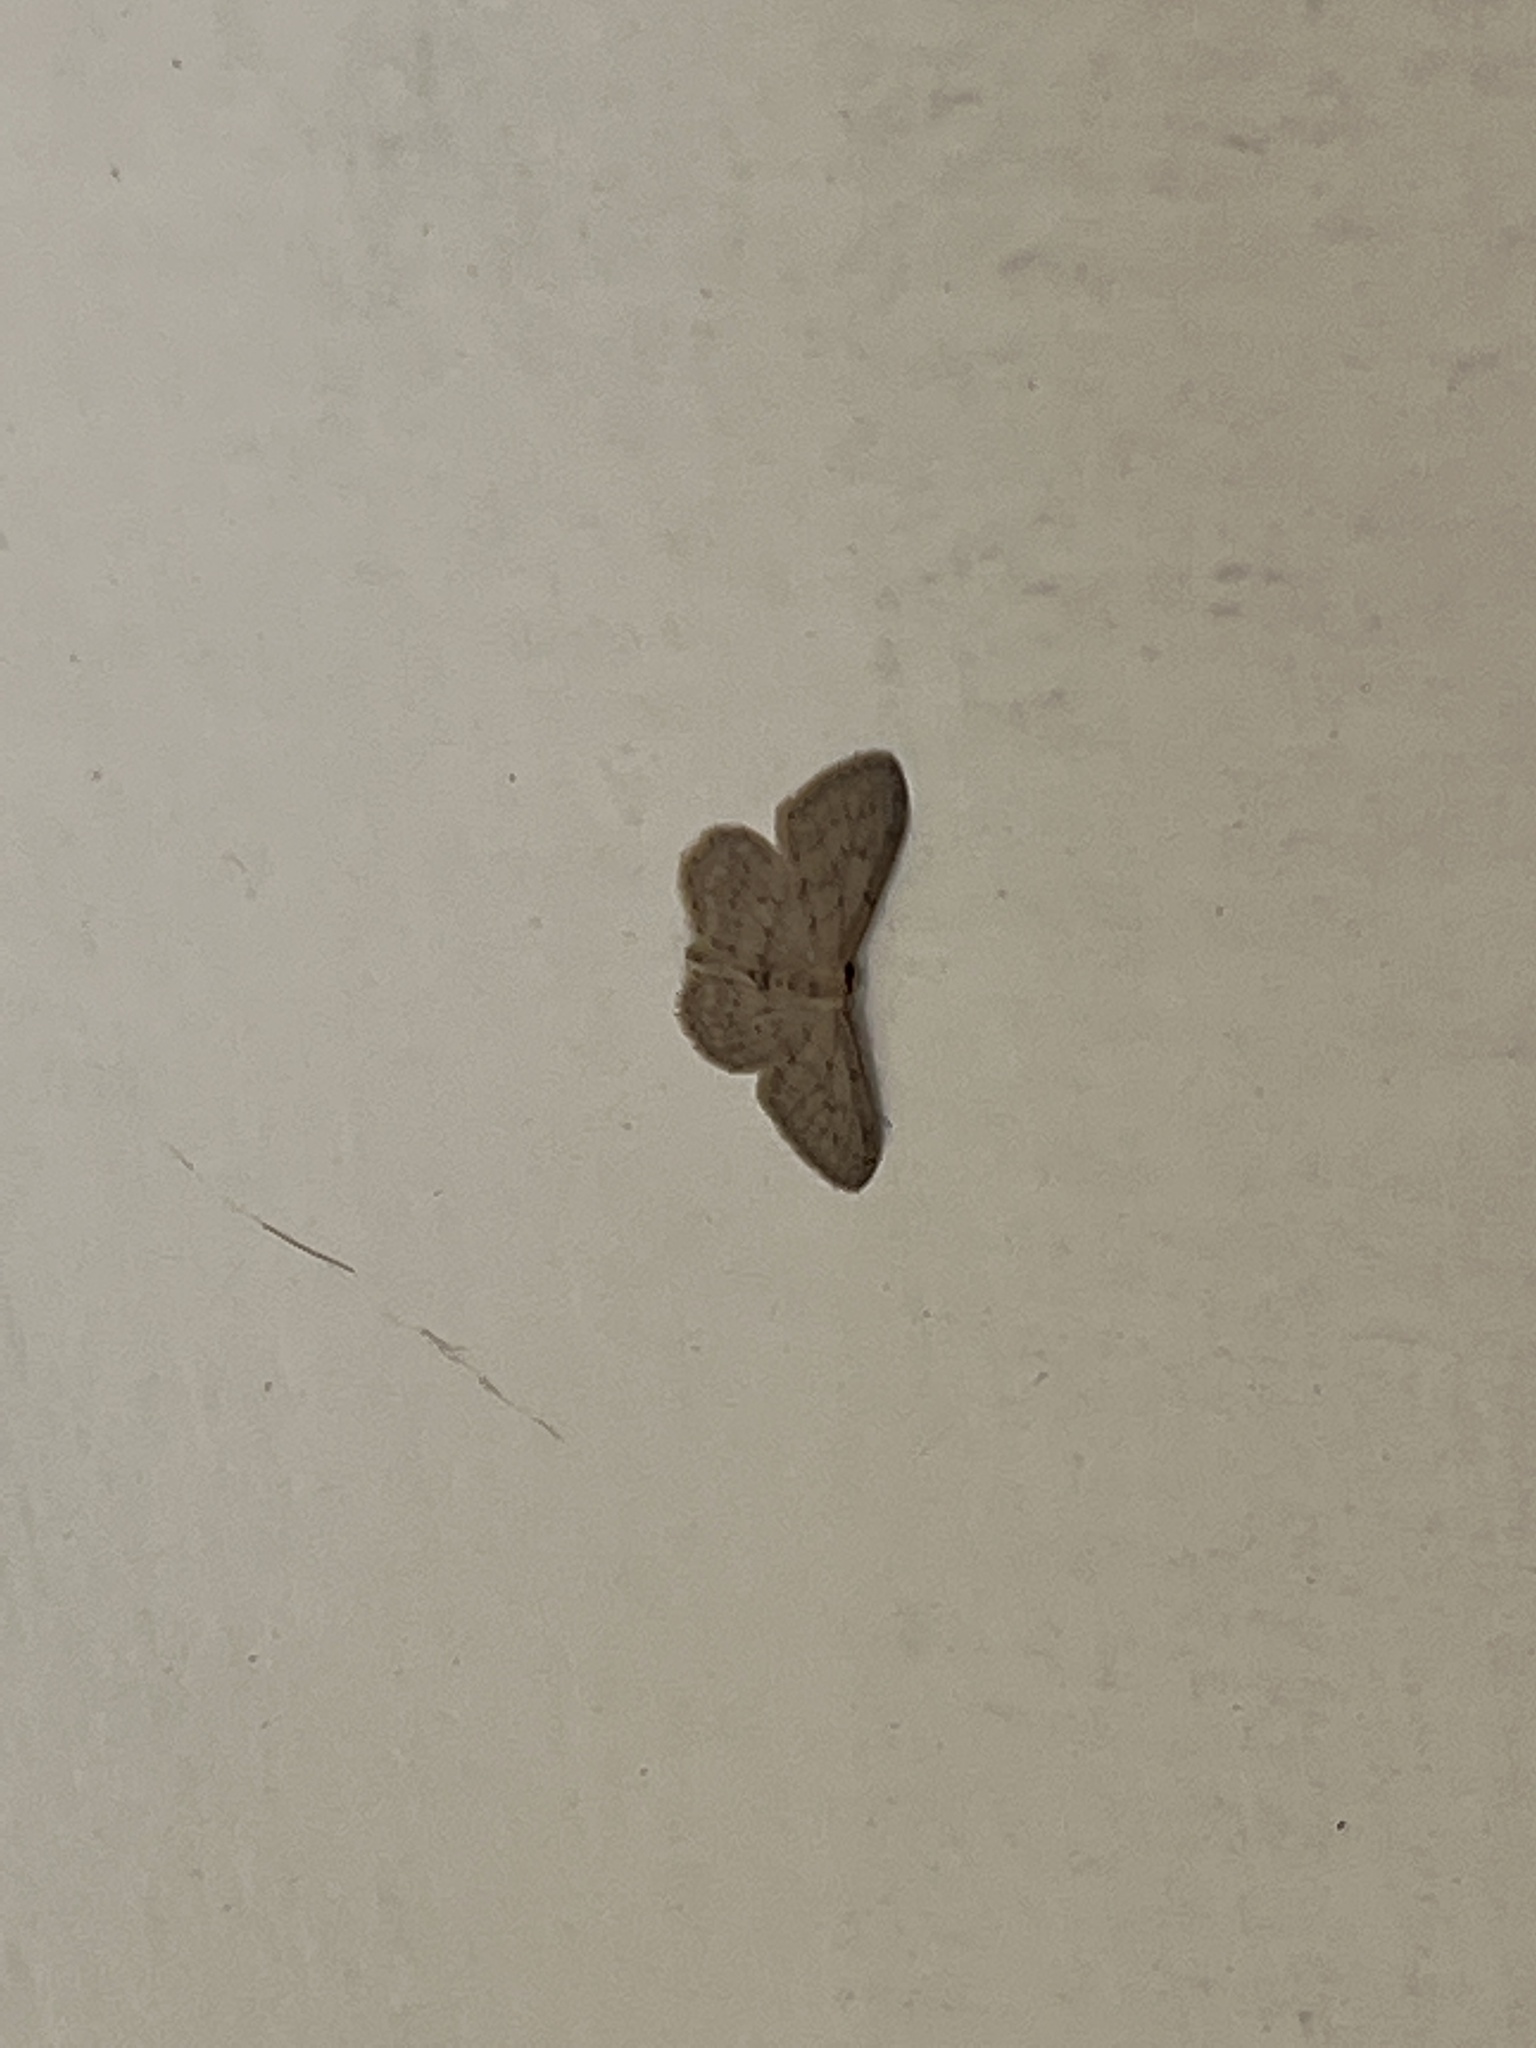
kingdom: Animalia
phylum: Arthropoda
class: Insecta
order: Lepidoptera
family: Geometridae
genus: Idaea
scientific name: Idaea seriata
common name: Small dusty wave
